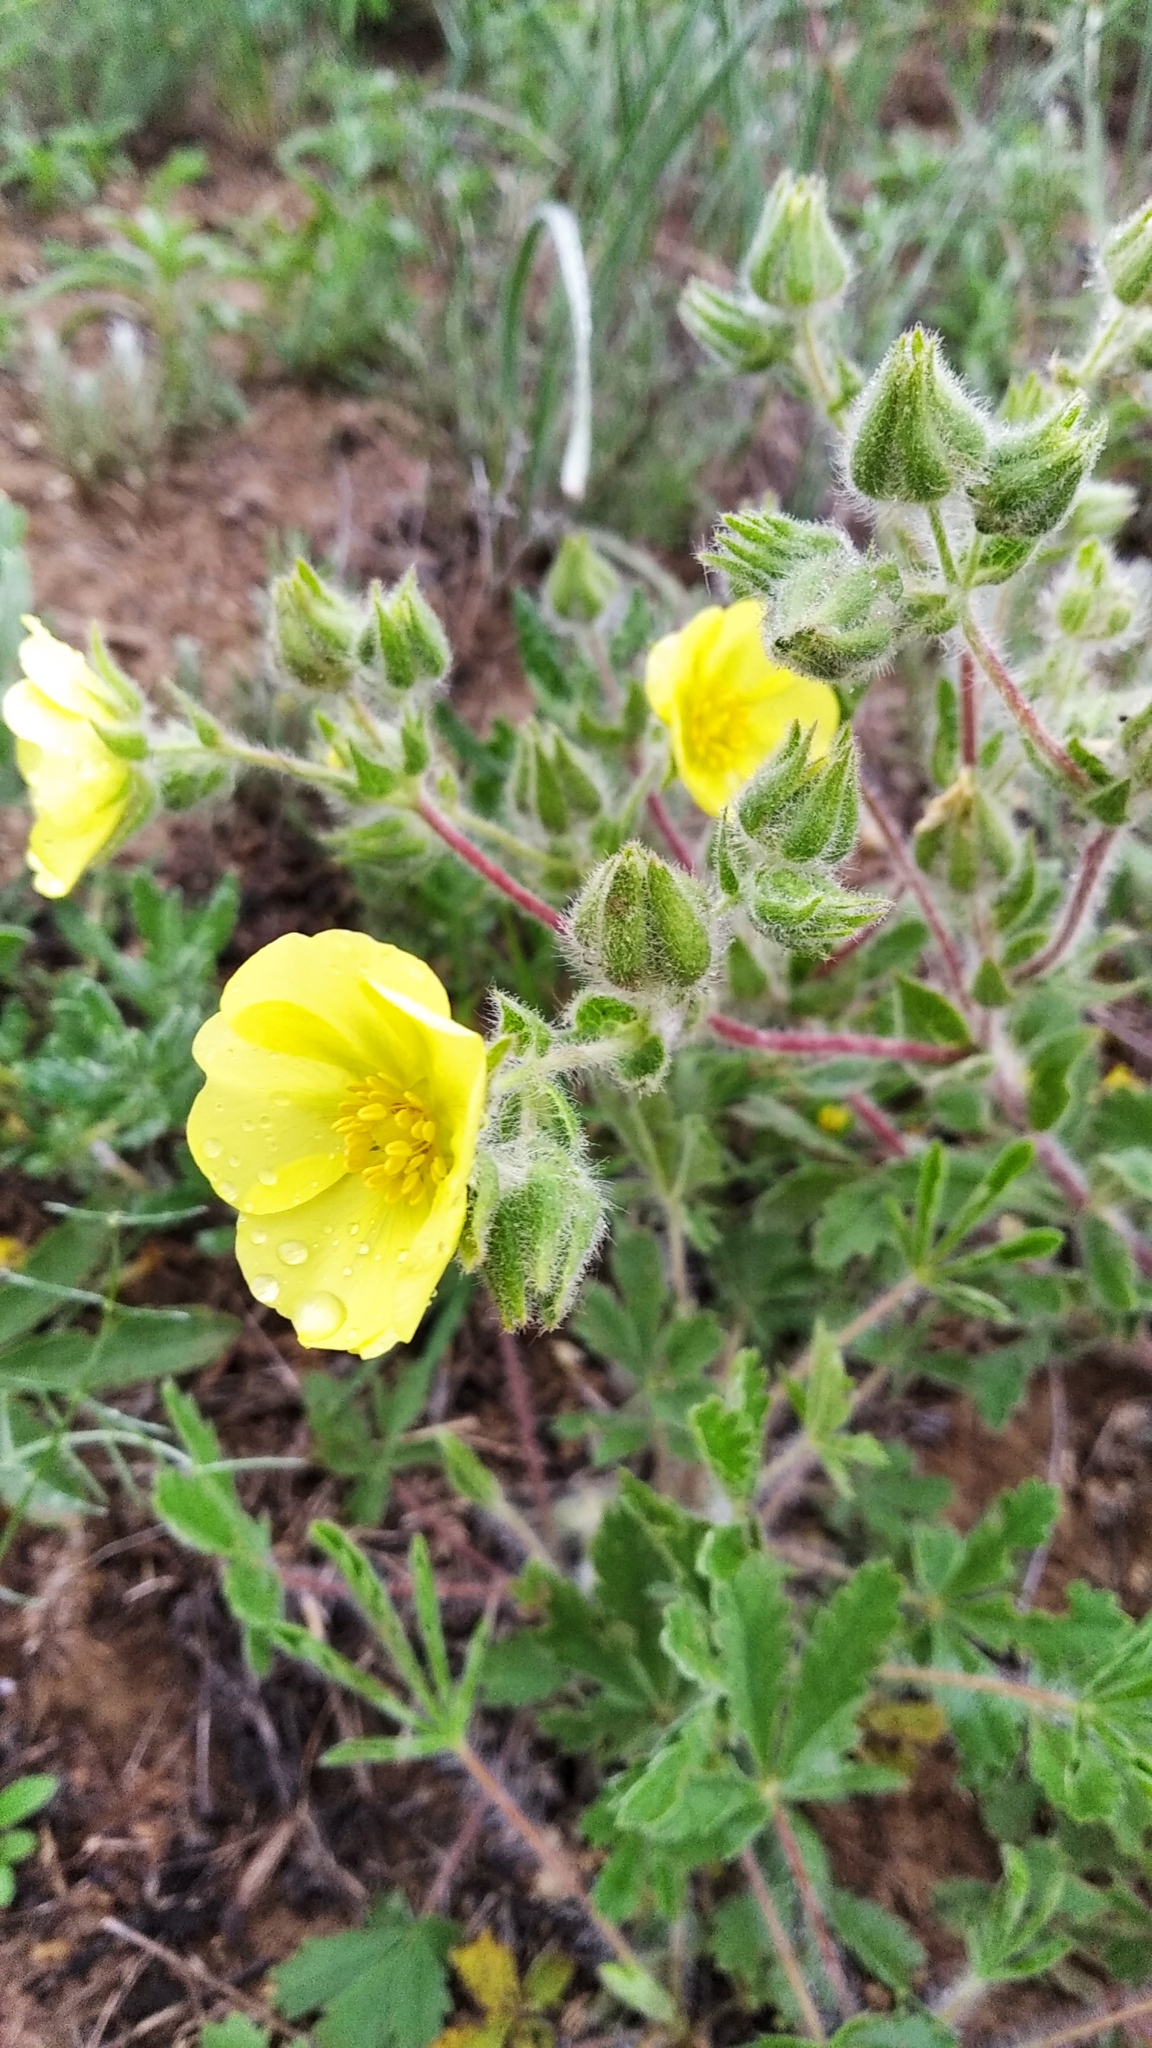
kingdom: Plantae
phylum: Tracheophyta
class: Magnoliopsida
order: Rosales
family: Rosaceae
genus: Potentilla
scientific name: Potentilla astracanica
